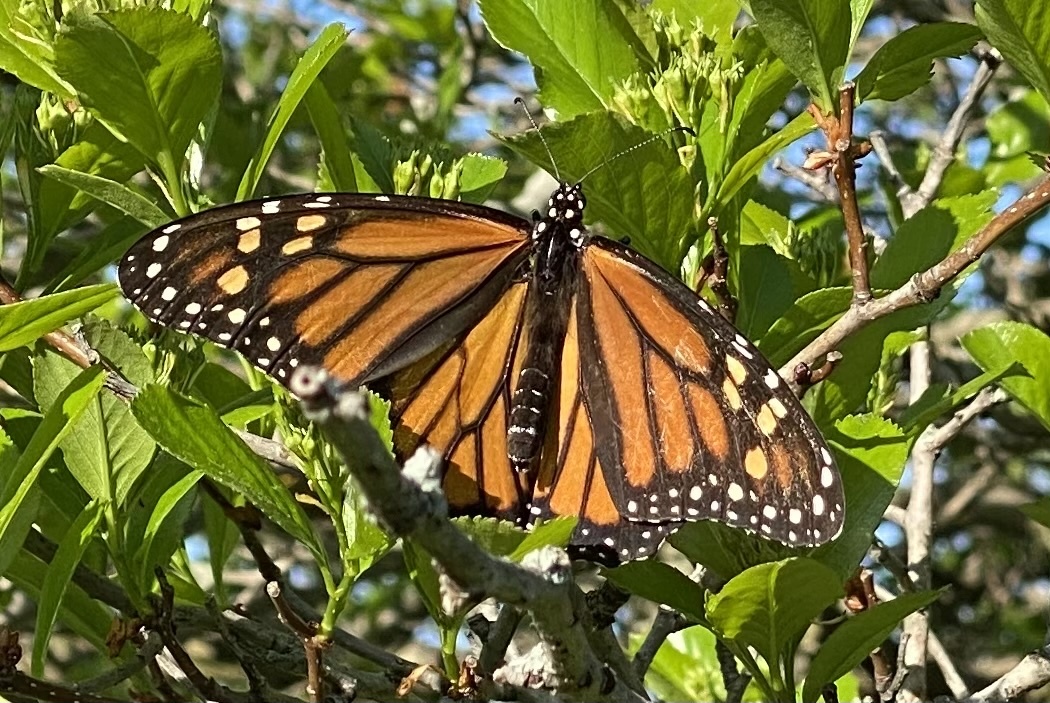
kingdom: Animalia
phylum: Arthropoda
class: Insecta
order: Lepidoptera
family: Nymphalidae
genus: Danaus
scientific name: Danaus plexippus
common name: Monarch
